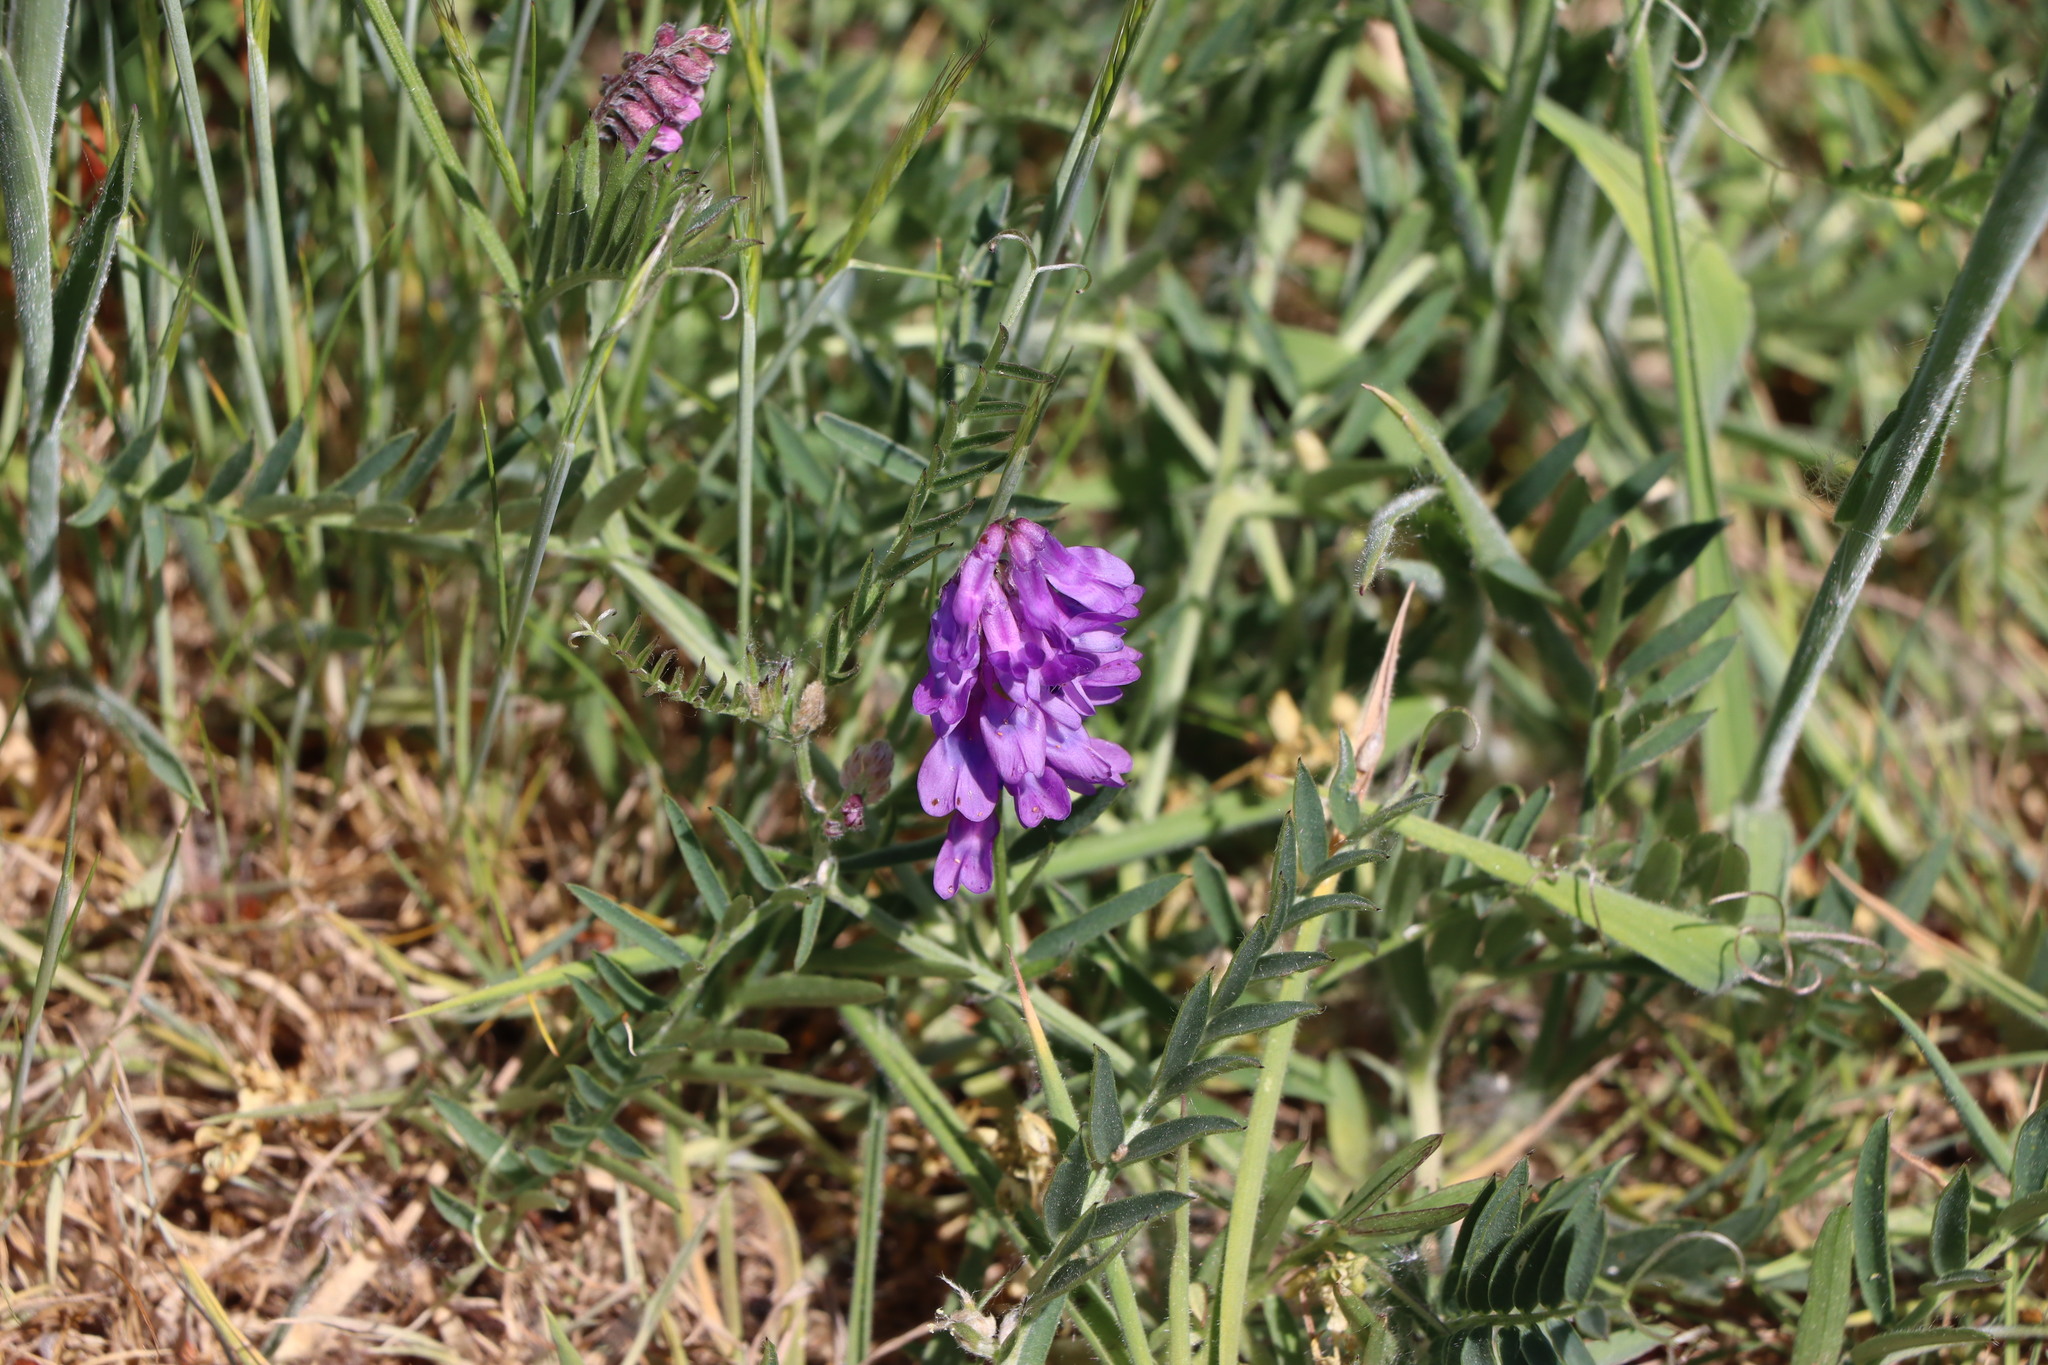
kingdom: Plantae
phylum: Tracheophyta
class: Magnoliopsida
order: Fabales
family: Fabaceae
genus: Vicia
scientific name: Vicia cracca
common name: Bird vetch
